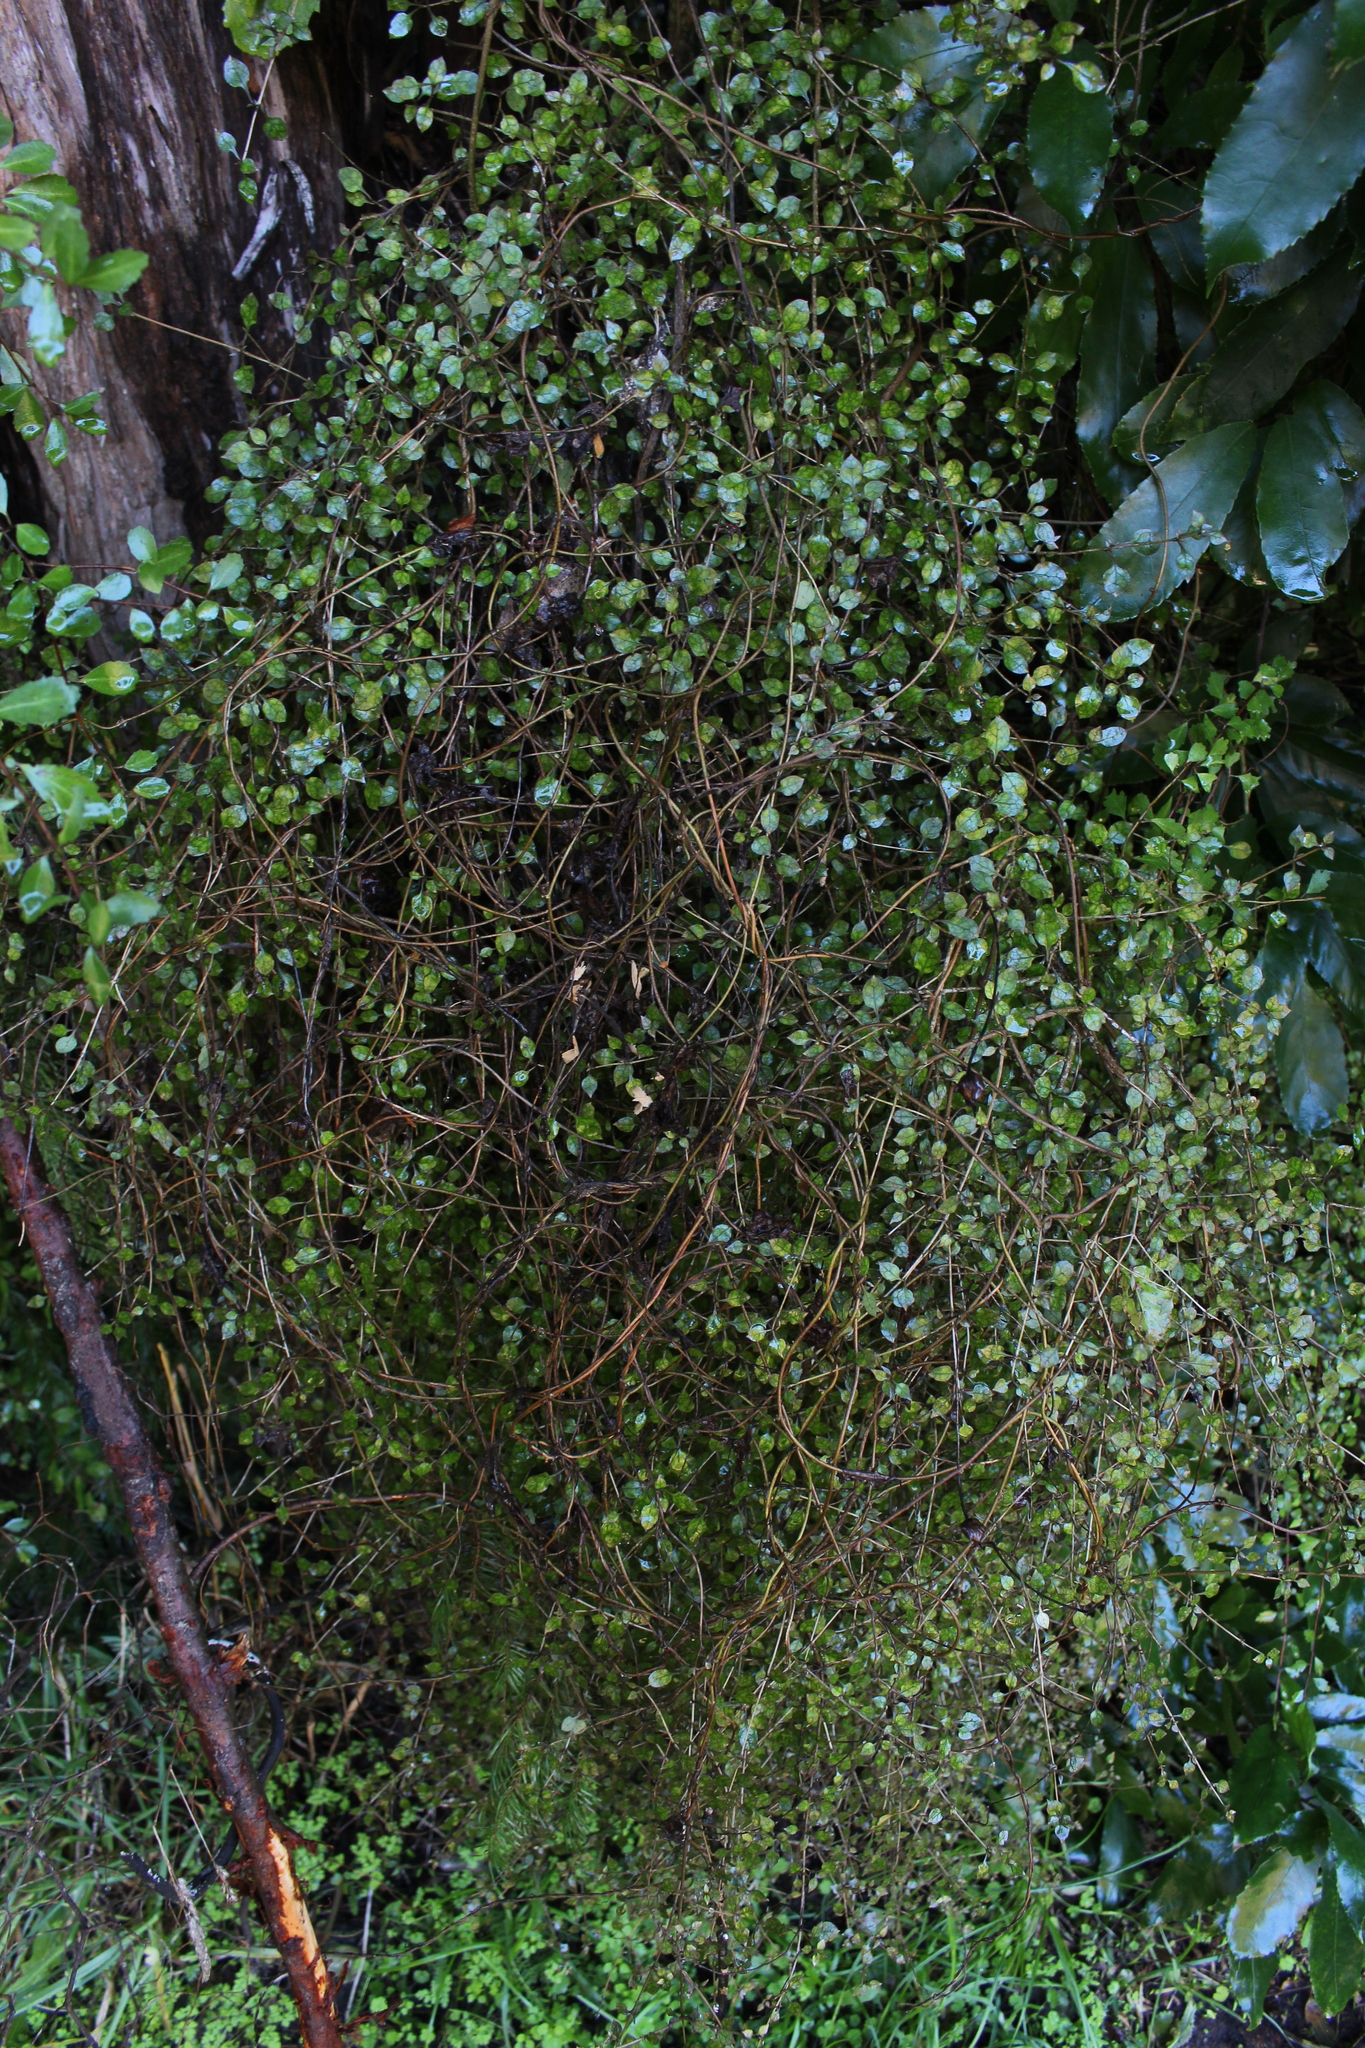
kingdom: Plantae
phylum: Tracheophyta
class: Magnoliopsida
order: Gentianales
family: Rubiaceae
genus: Coprosma
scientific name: Coprosma areolata
